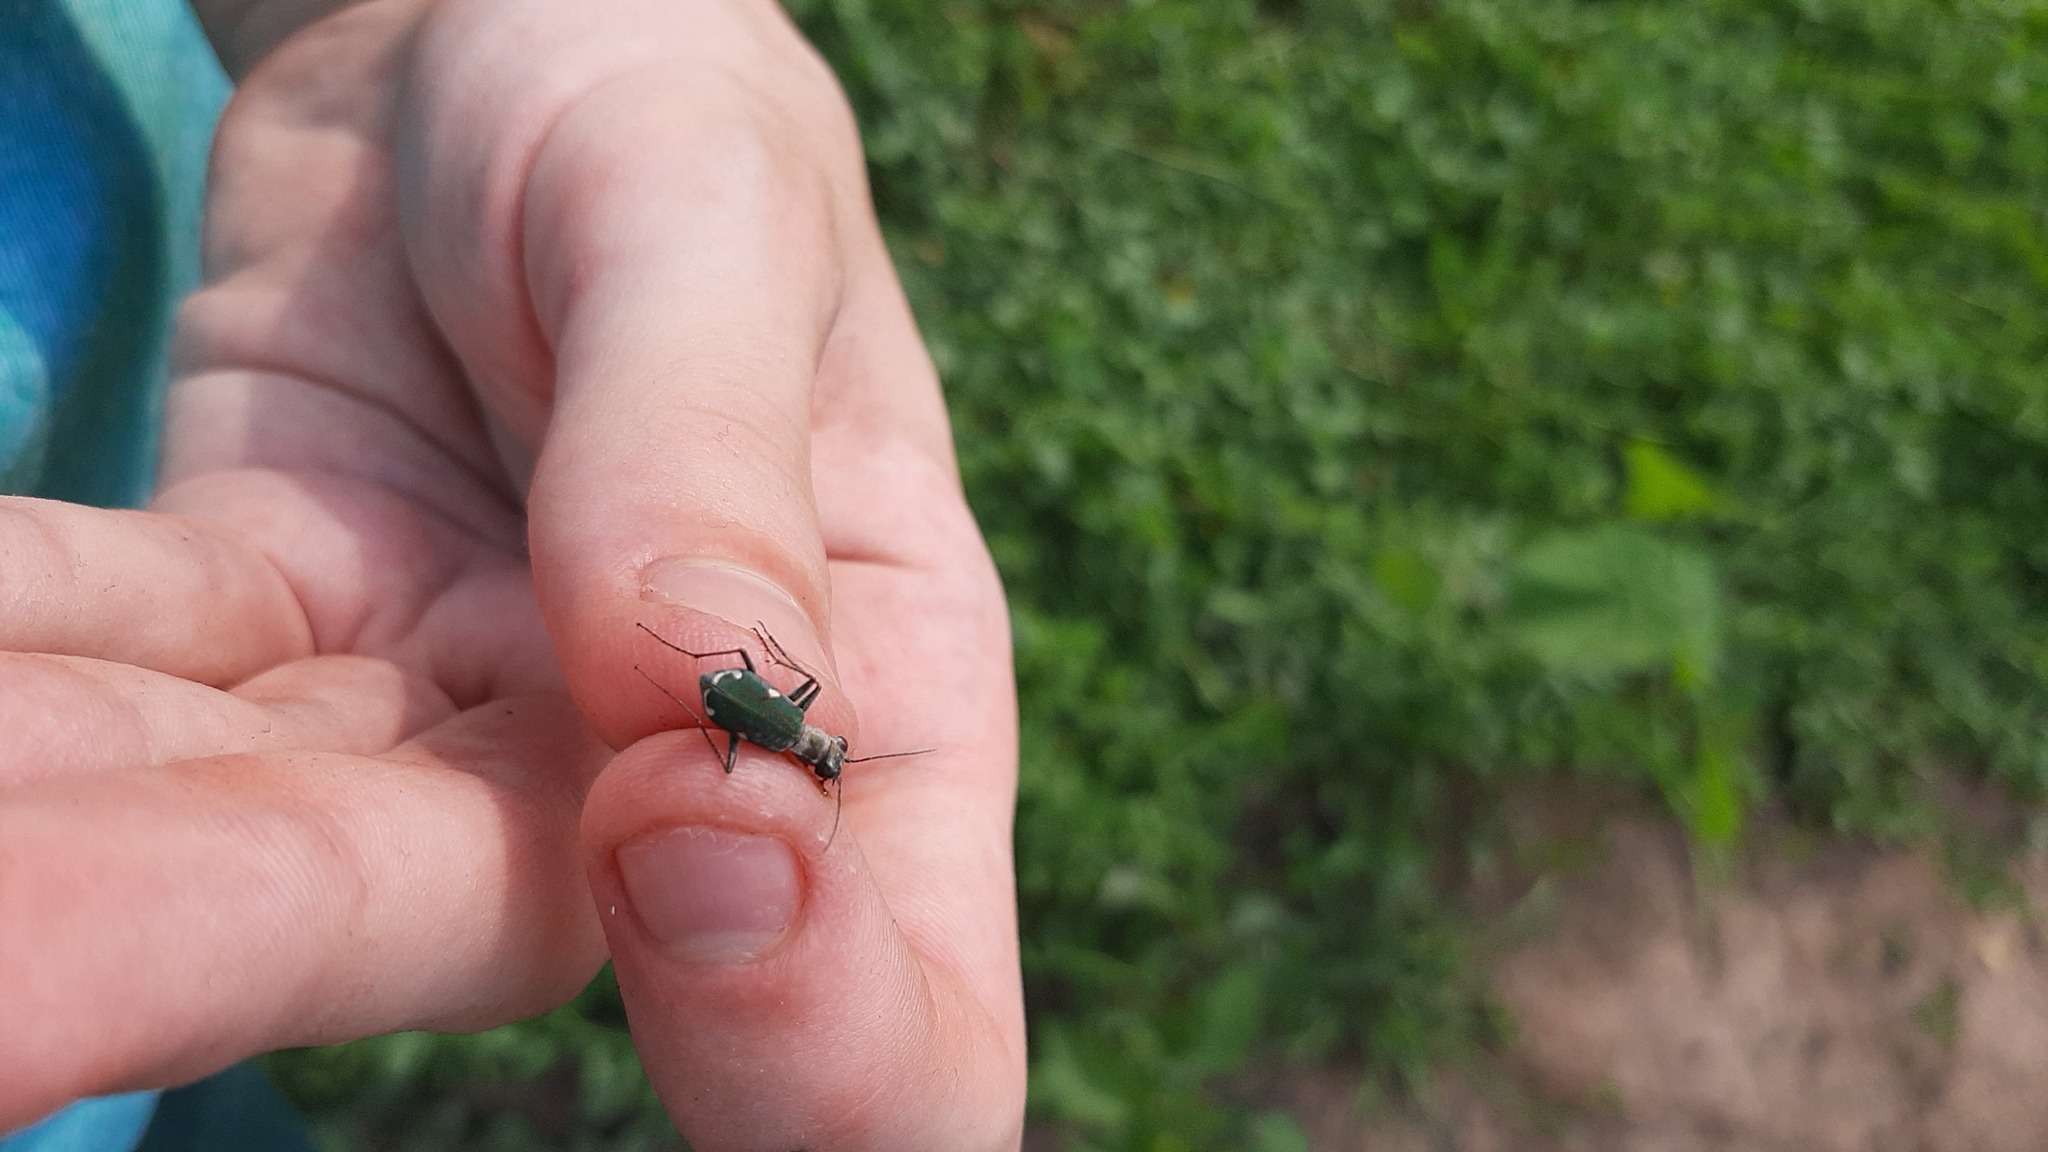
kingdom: Animalia
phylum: Arthropoda
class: Insecta
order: Coleoptera
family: Carabidae
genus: Cylindera
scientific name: Cylindera germanica
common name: Cliff tiger beetle
